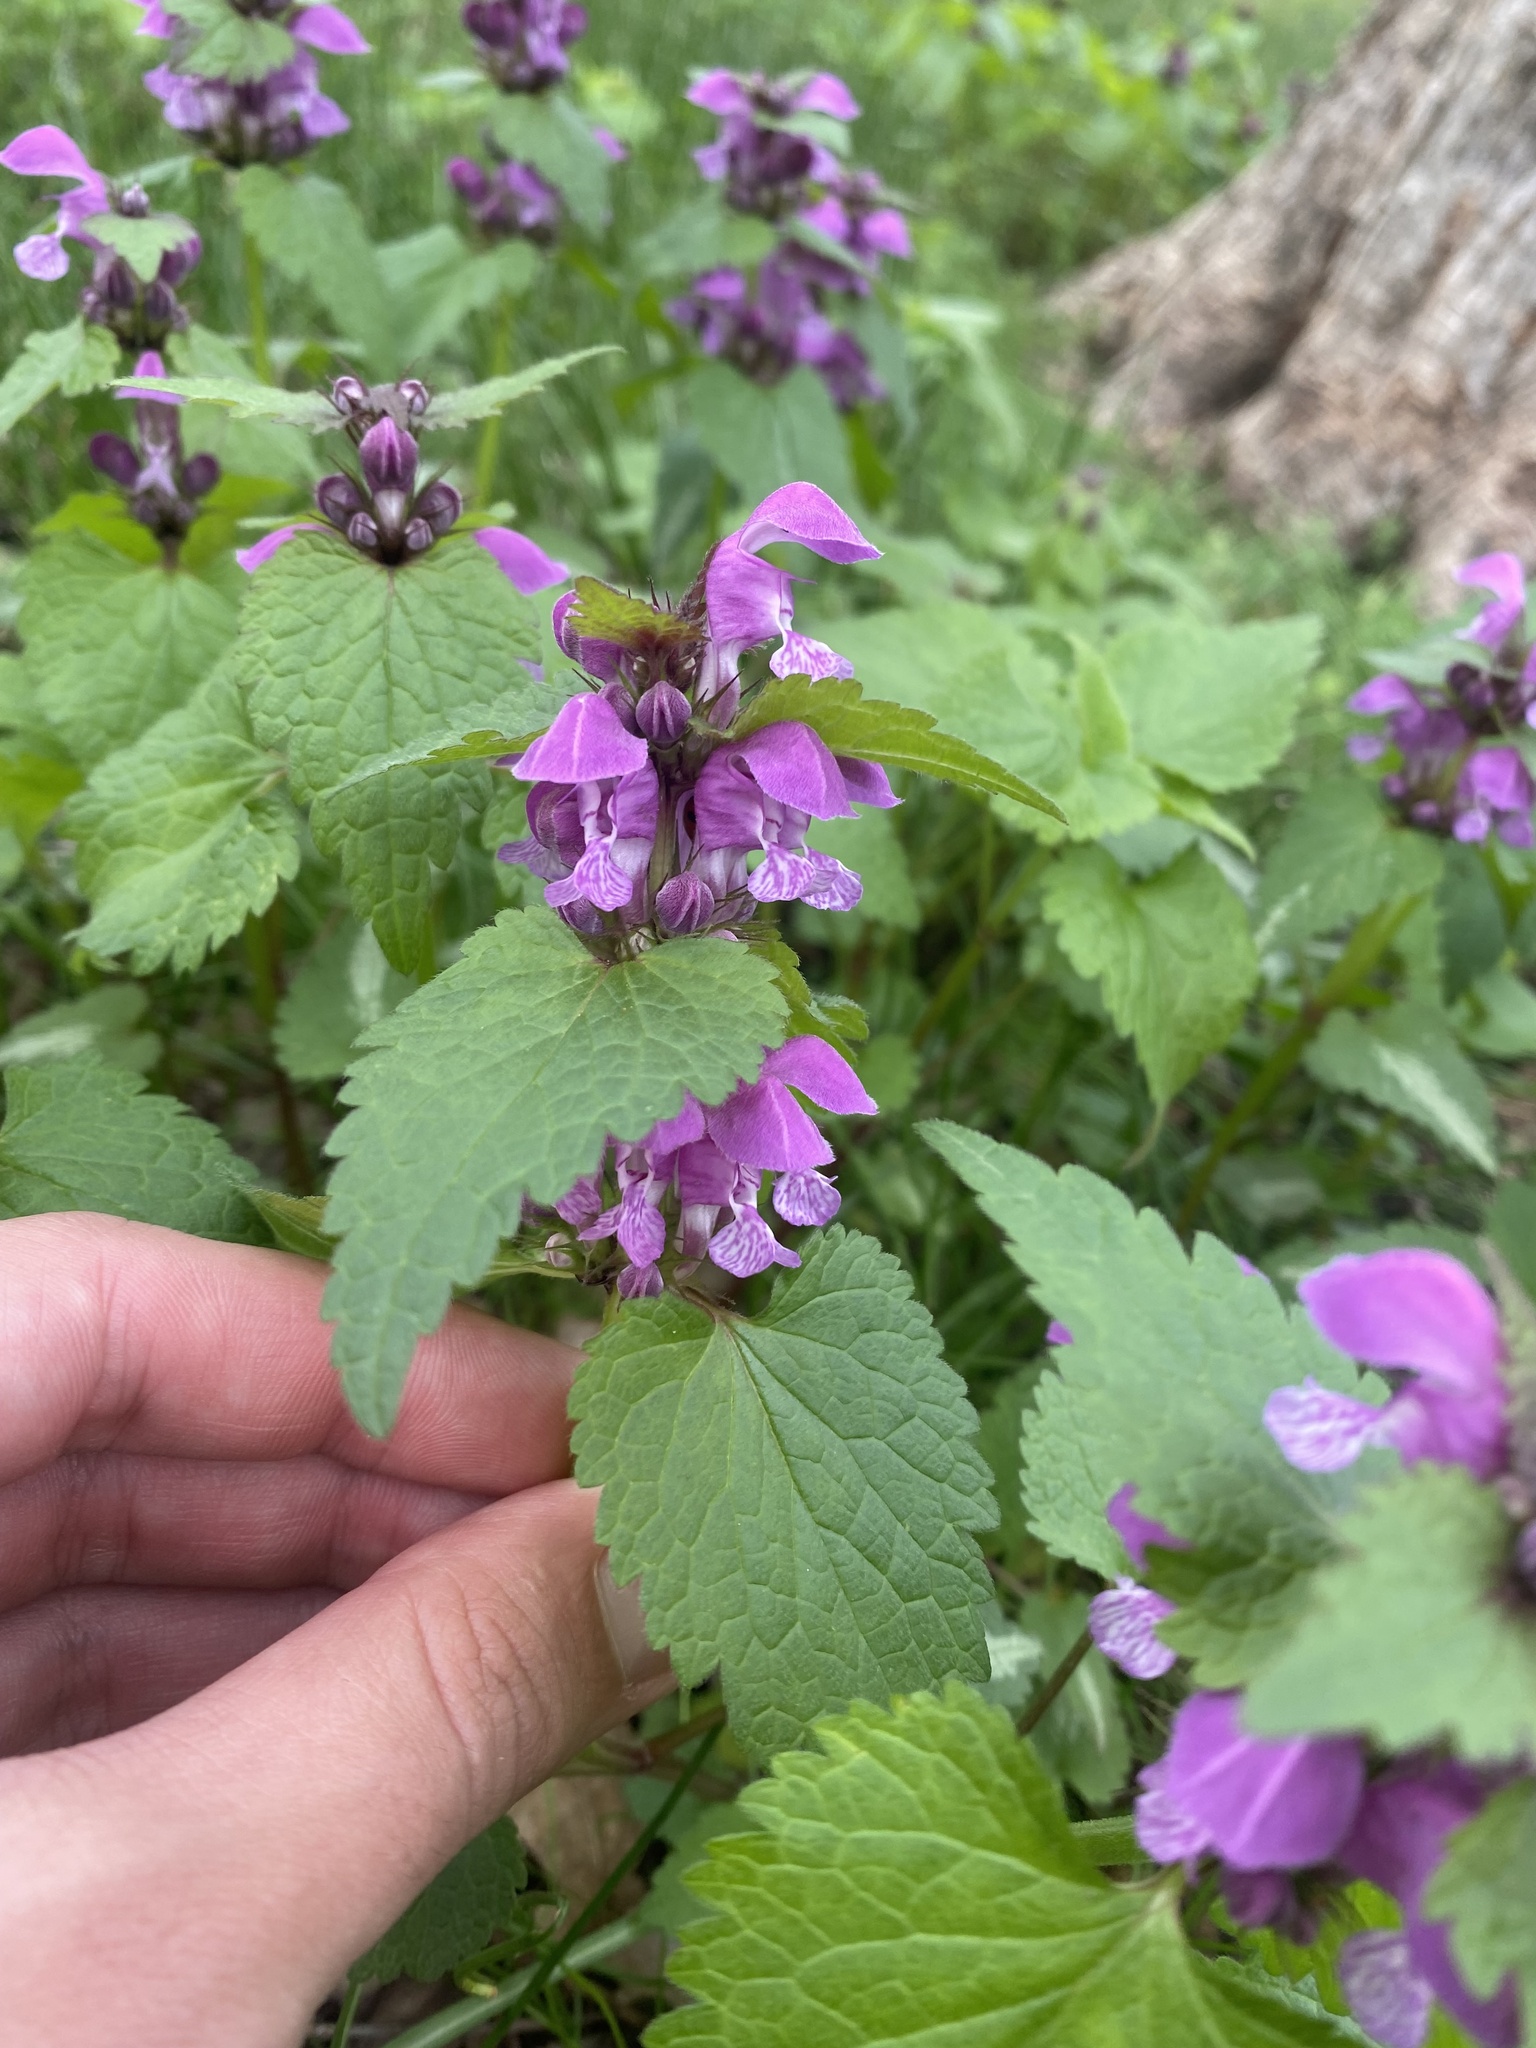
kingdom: Plantae
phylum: Tracheophyta
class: Magnoliopsida
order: Lamiales
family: Lamiaceae
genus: Lamium
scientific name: Lamium maculatum
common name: Spotted dead-nettle
